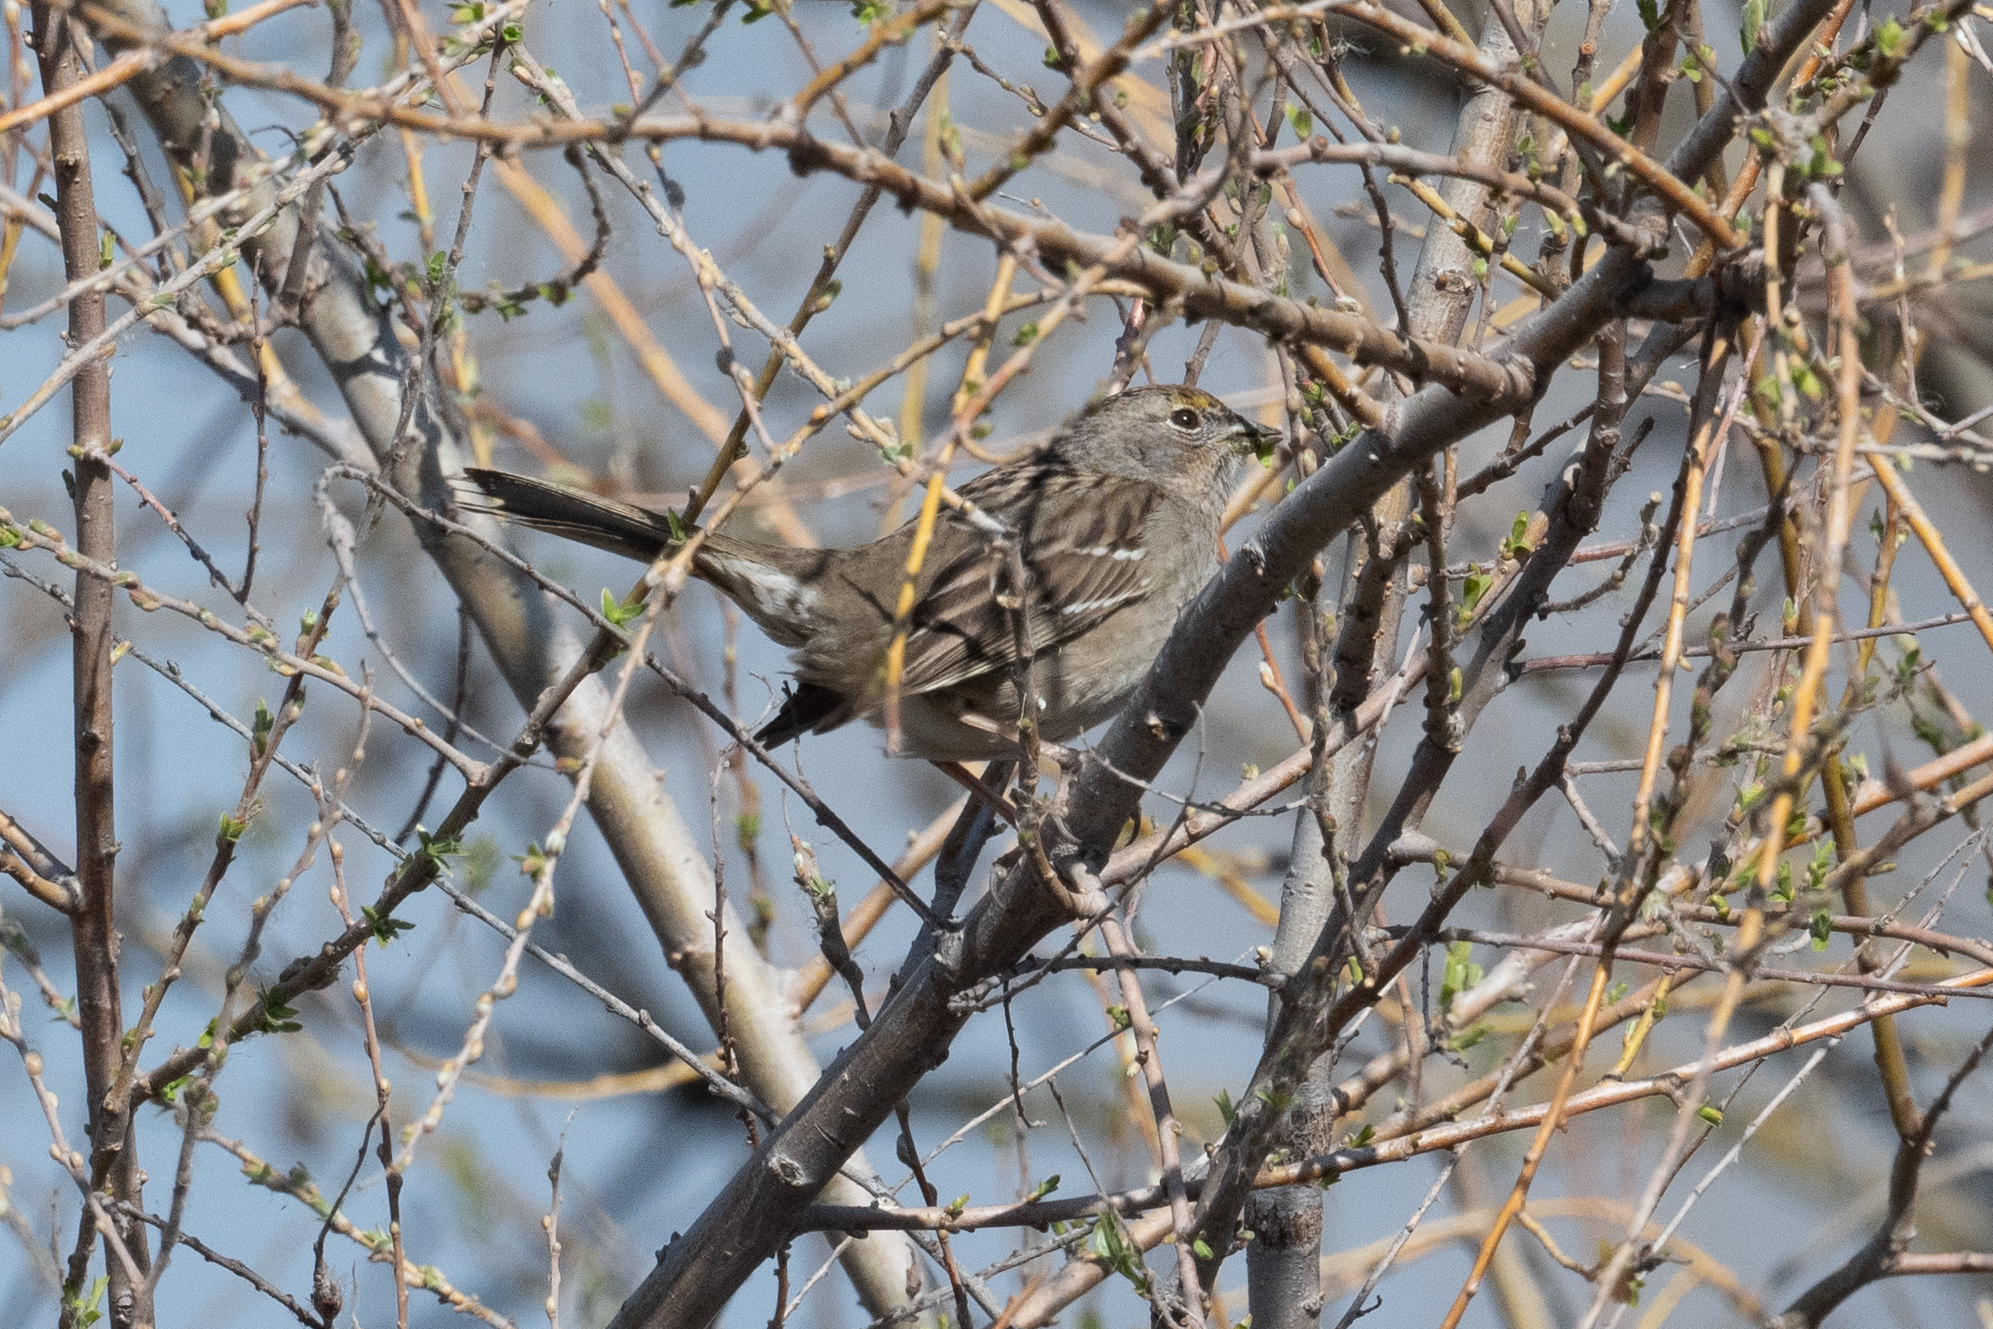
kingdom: Animalia
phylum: Chordata
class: Aves
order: Passeriformes
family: Passerellidae
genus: Zonotrichia
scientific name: Zonotrichia atricapilla
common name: Golden-crowned sparrow
